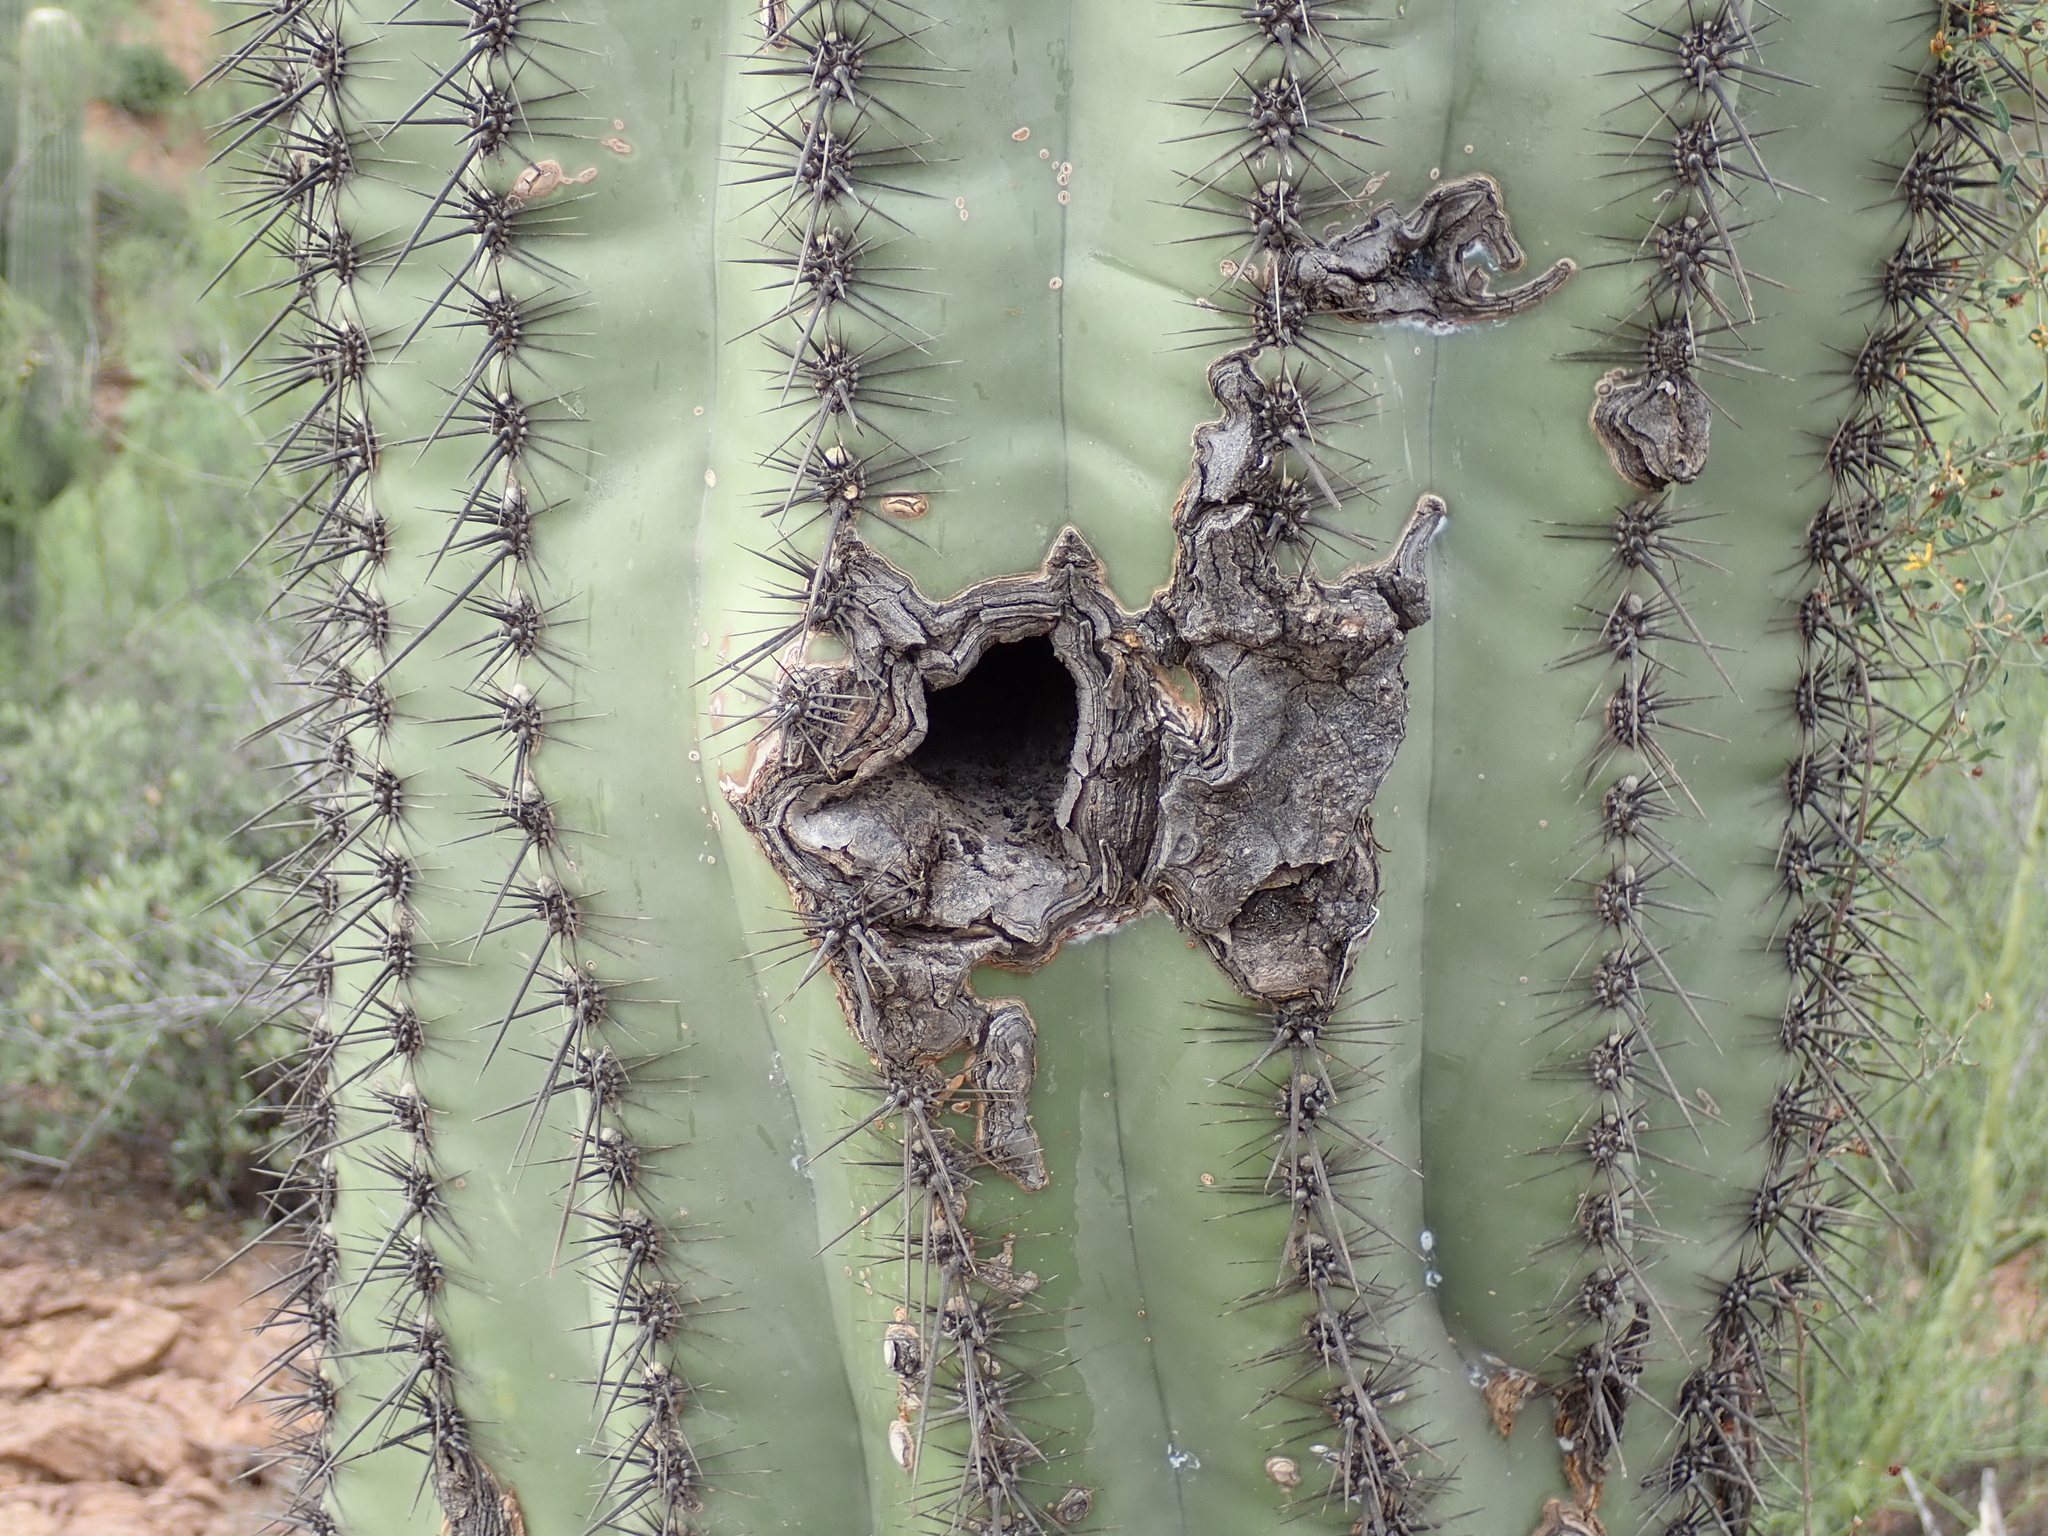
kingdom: Plantae
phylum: Tracheophyta
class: Magnoliopsida
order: Caryophyllales
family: Cactaceae
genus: Carnegiea
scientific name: Carnegiea gigantea
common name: Saguaro
